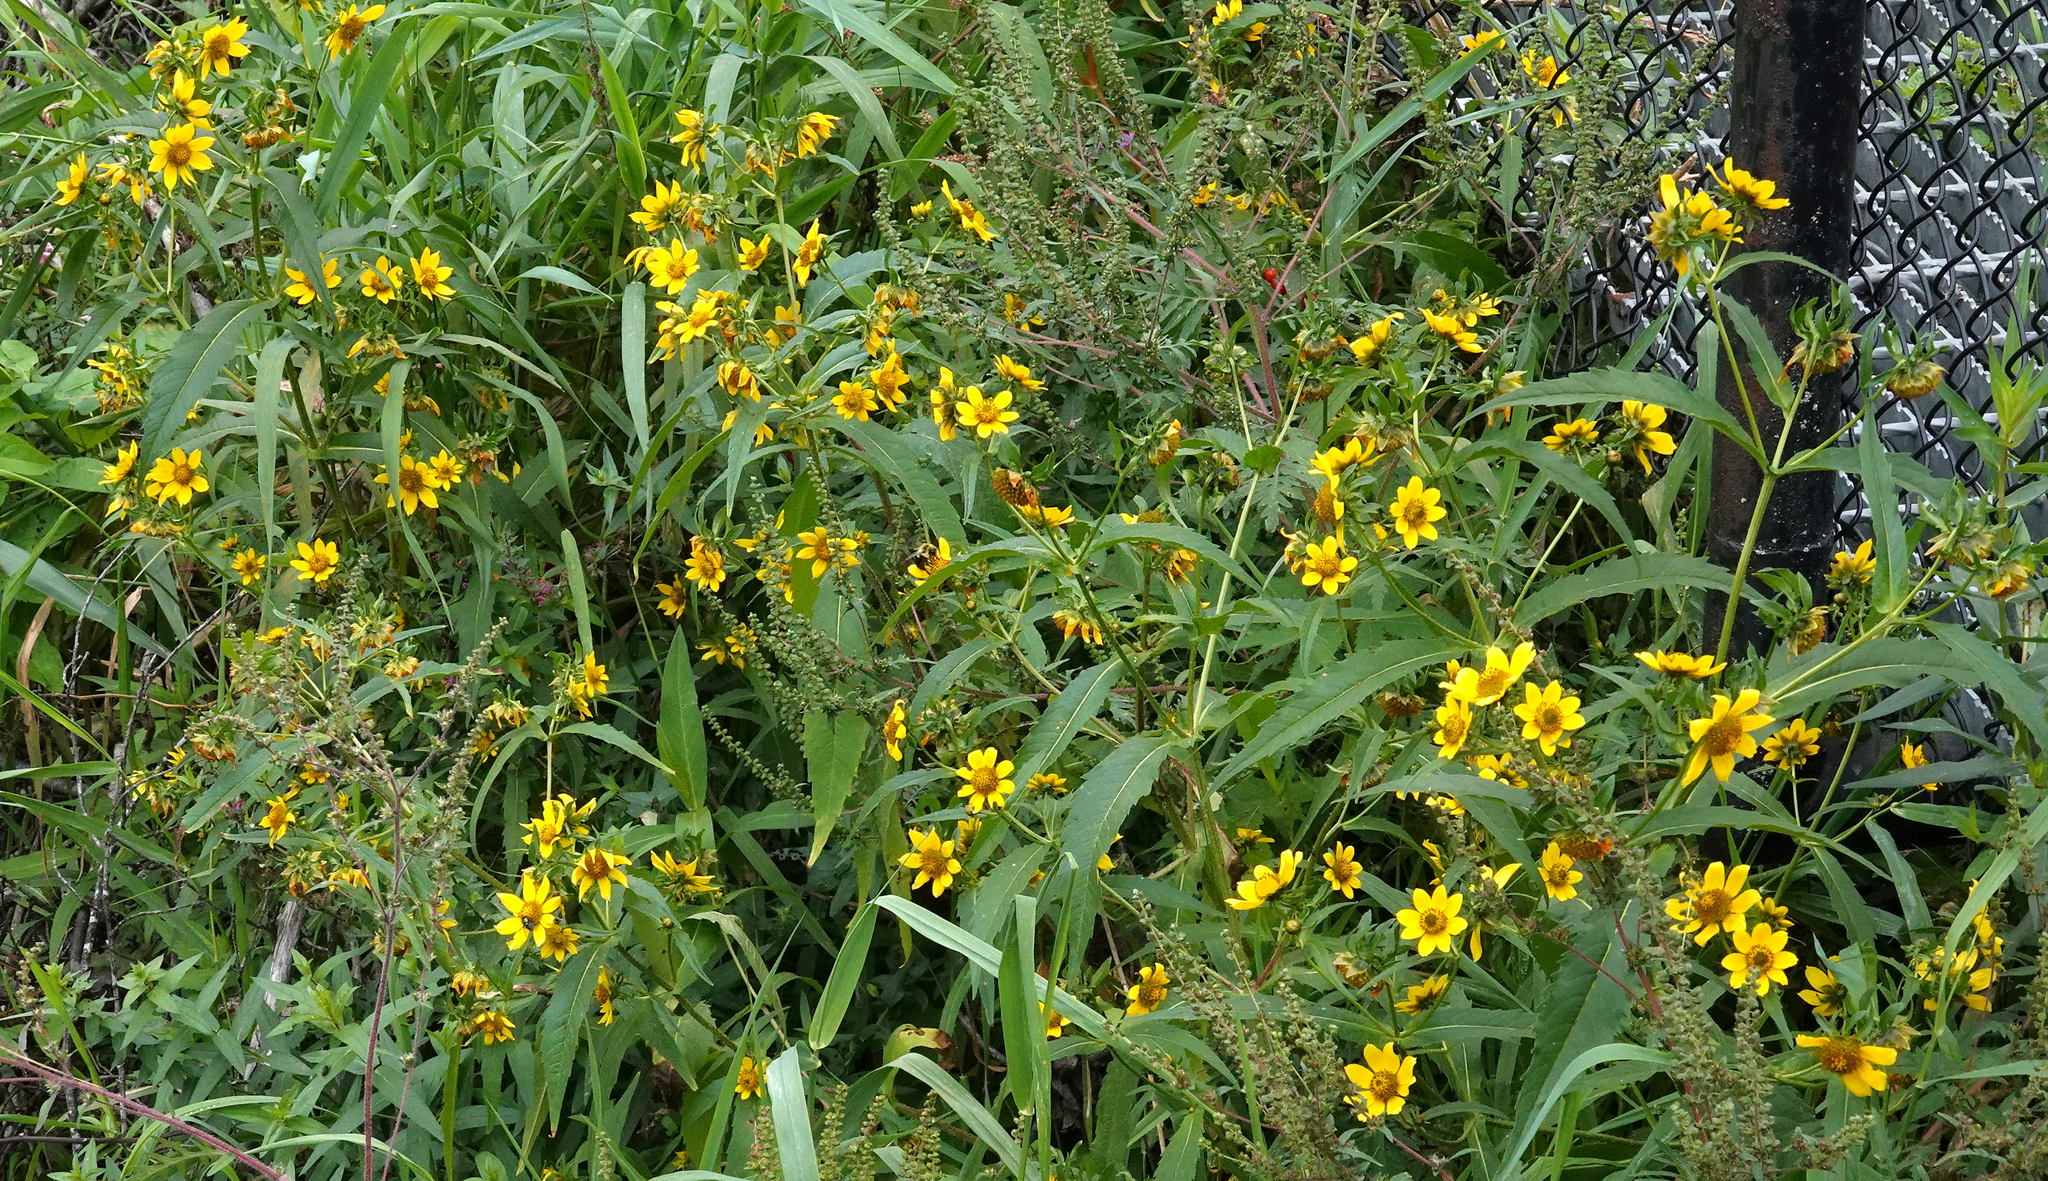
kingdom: Plantae
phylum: Tracheophyta
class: Magnoliopsida
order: Asterales
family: Asteraceae
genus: Bidens
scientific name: Bidens cernua
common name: Nodding bur-marigold
